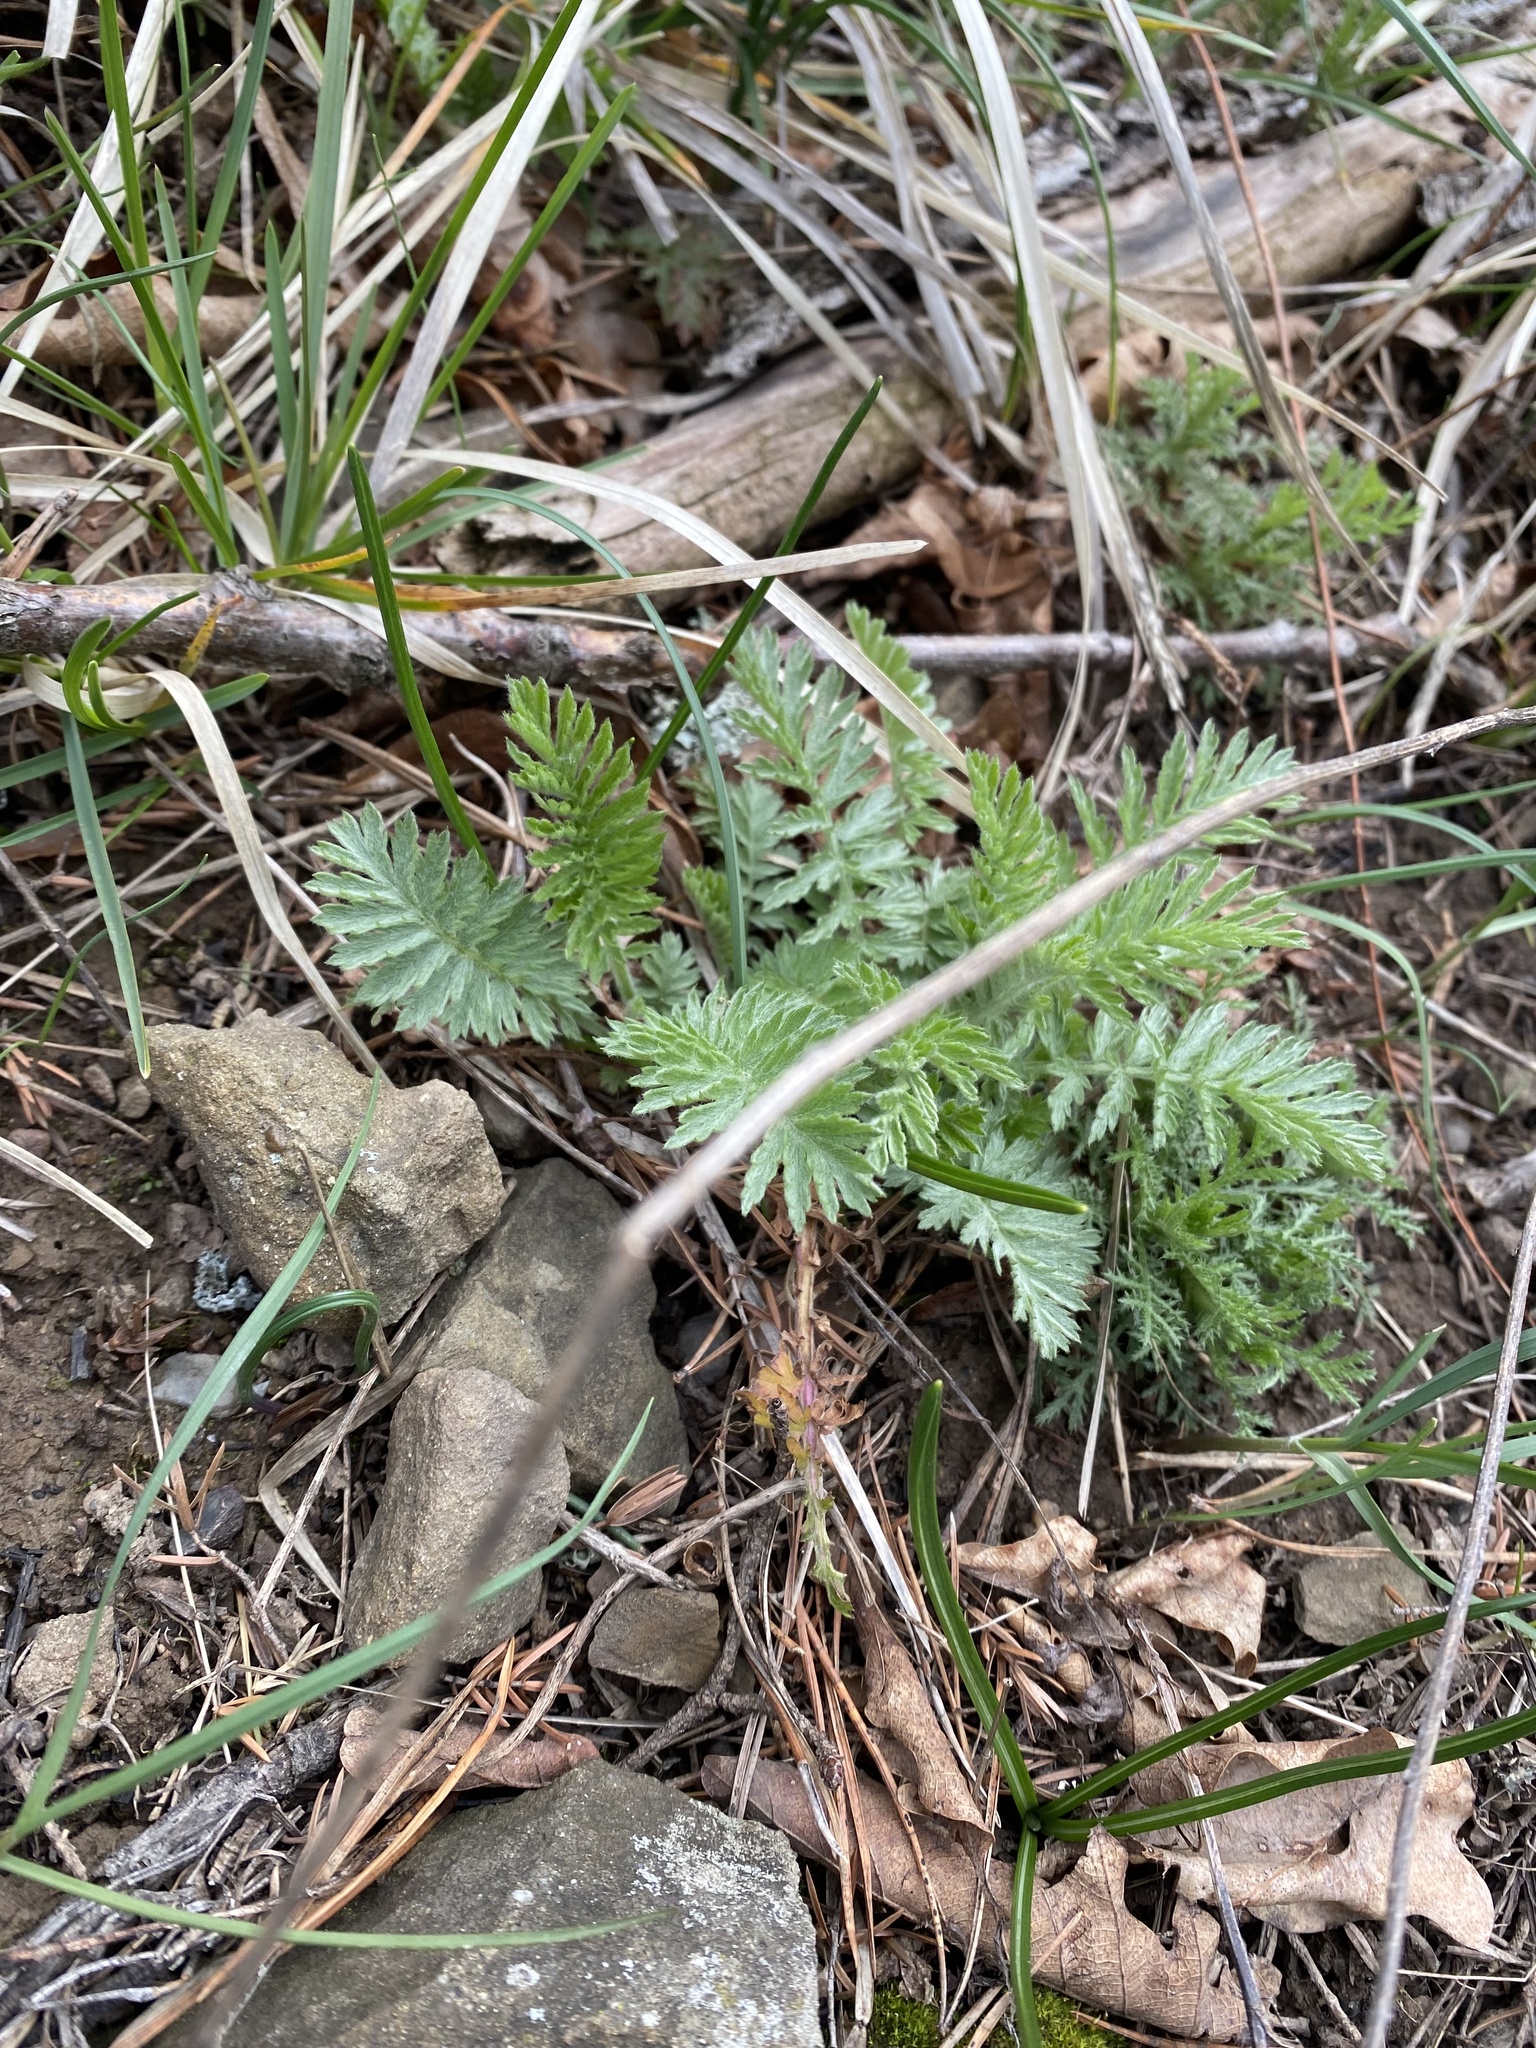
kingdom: Plantae
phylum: Tracheophyta
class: Magnoliopsida
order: Asterales
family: Asteraceae
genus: Tanacetum
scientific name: Tanacetum poteriifolium
